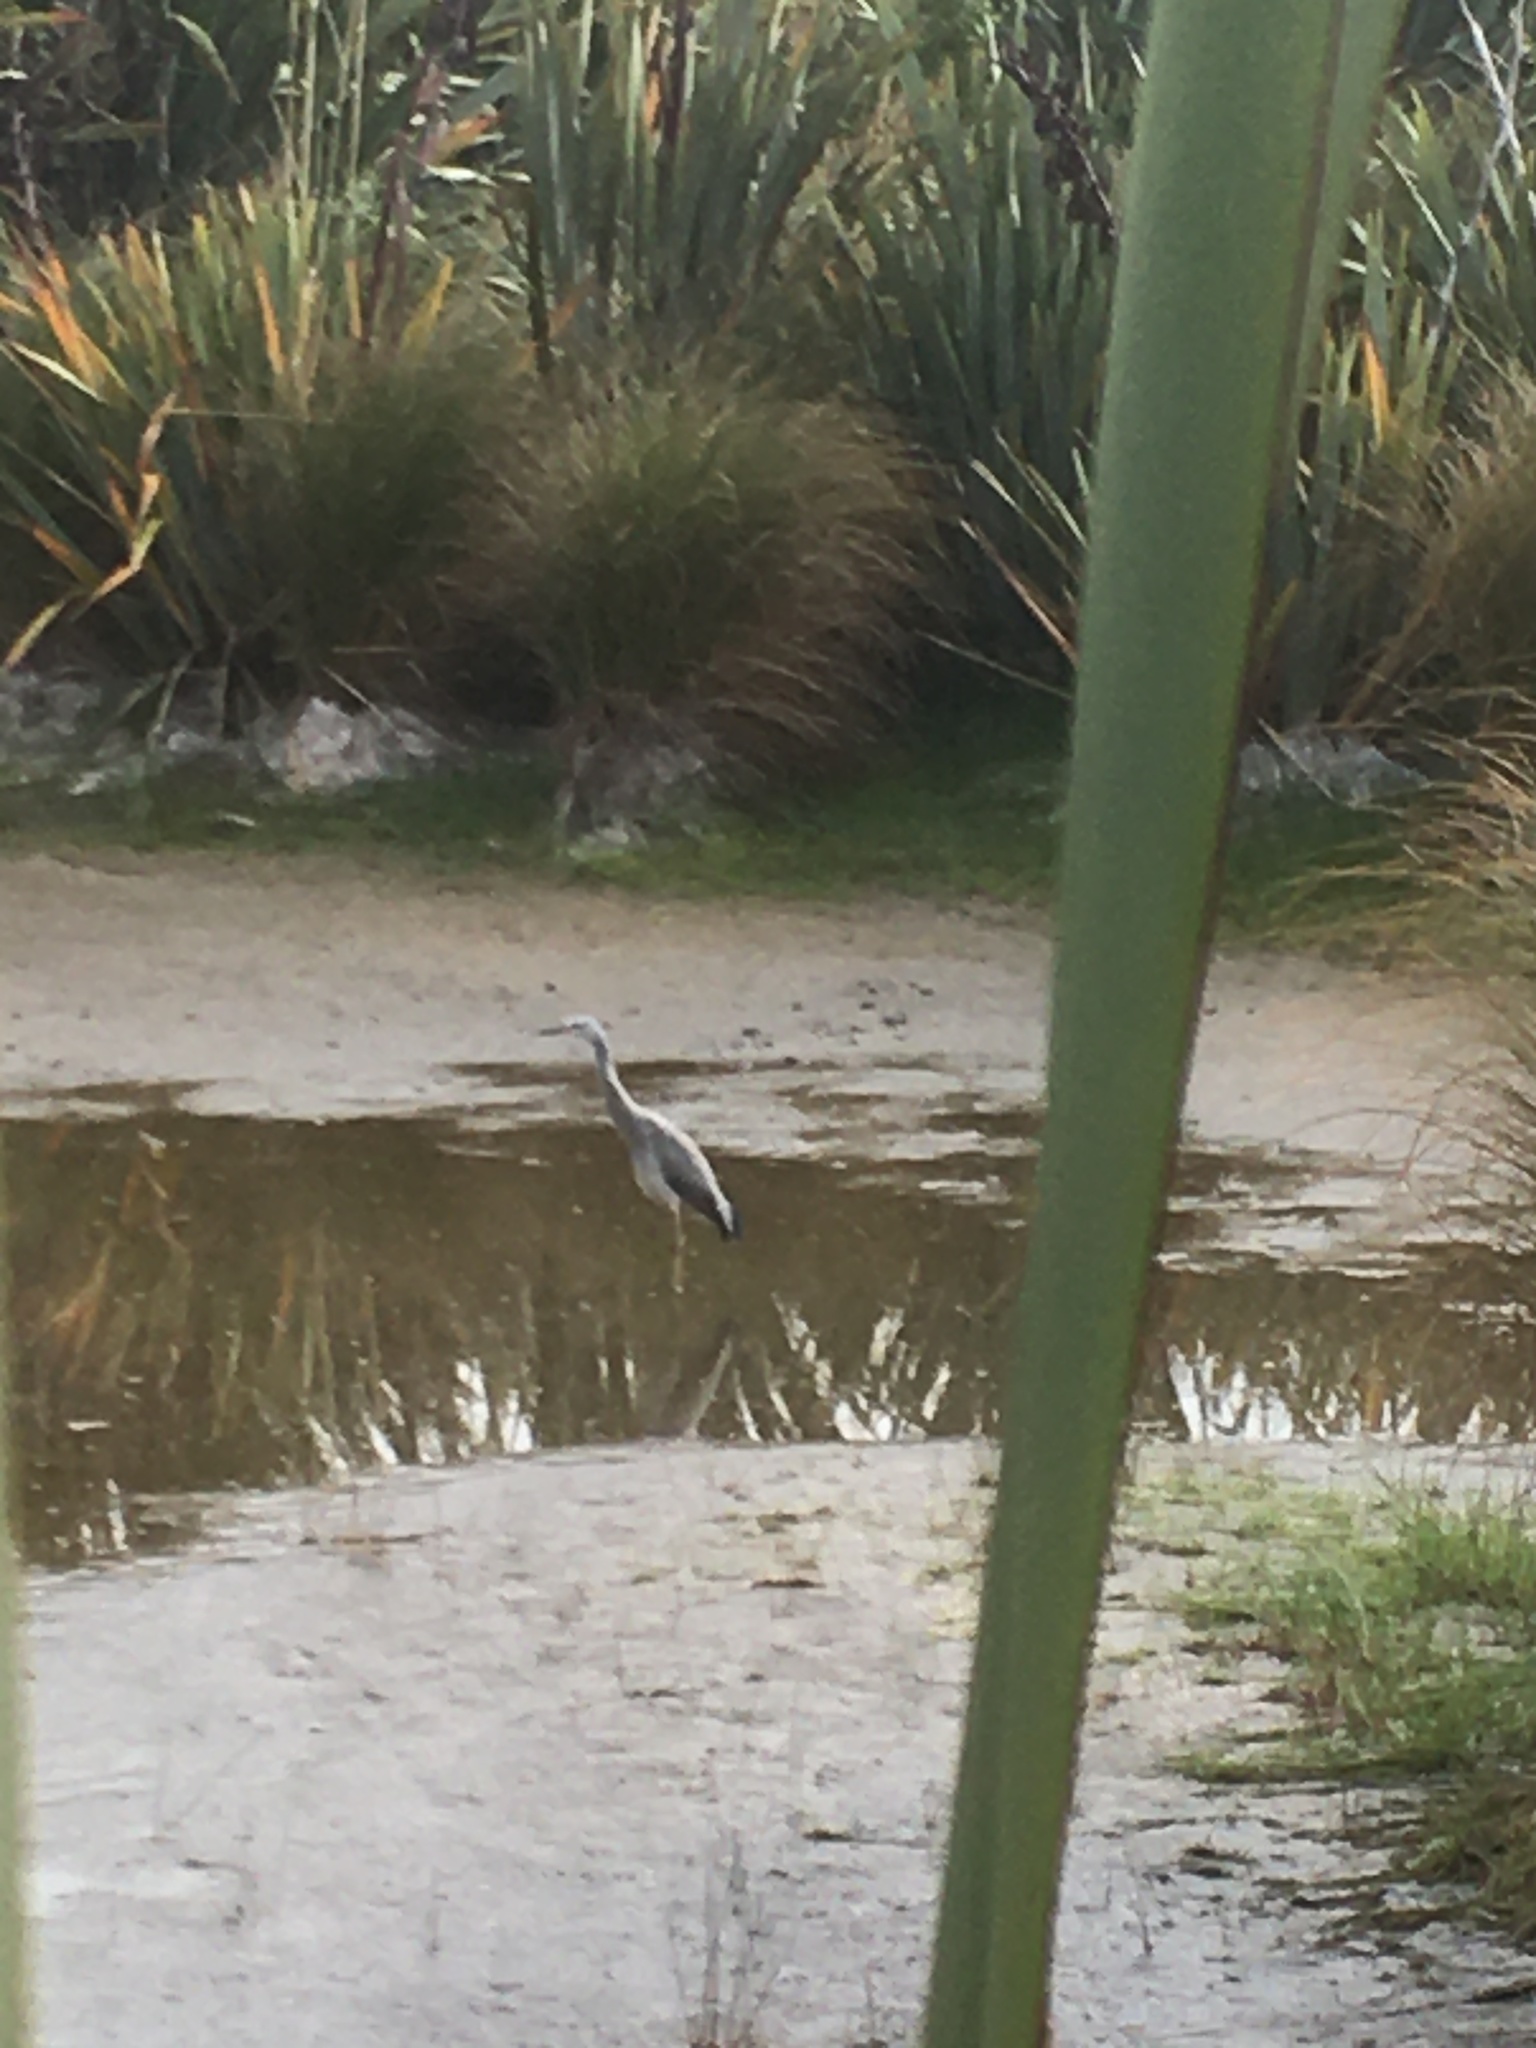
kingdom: Animalia
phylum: Chordata
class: Aves
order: Pelecaniformes
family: Ardeidae
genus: Egretta
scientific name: Egretta novaehollandiae
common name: White-faced heron
